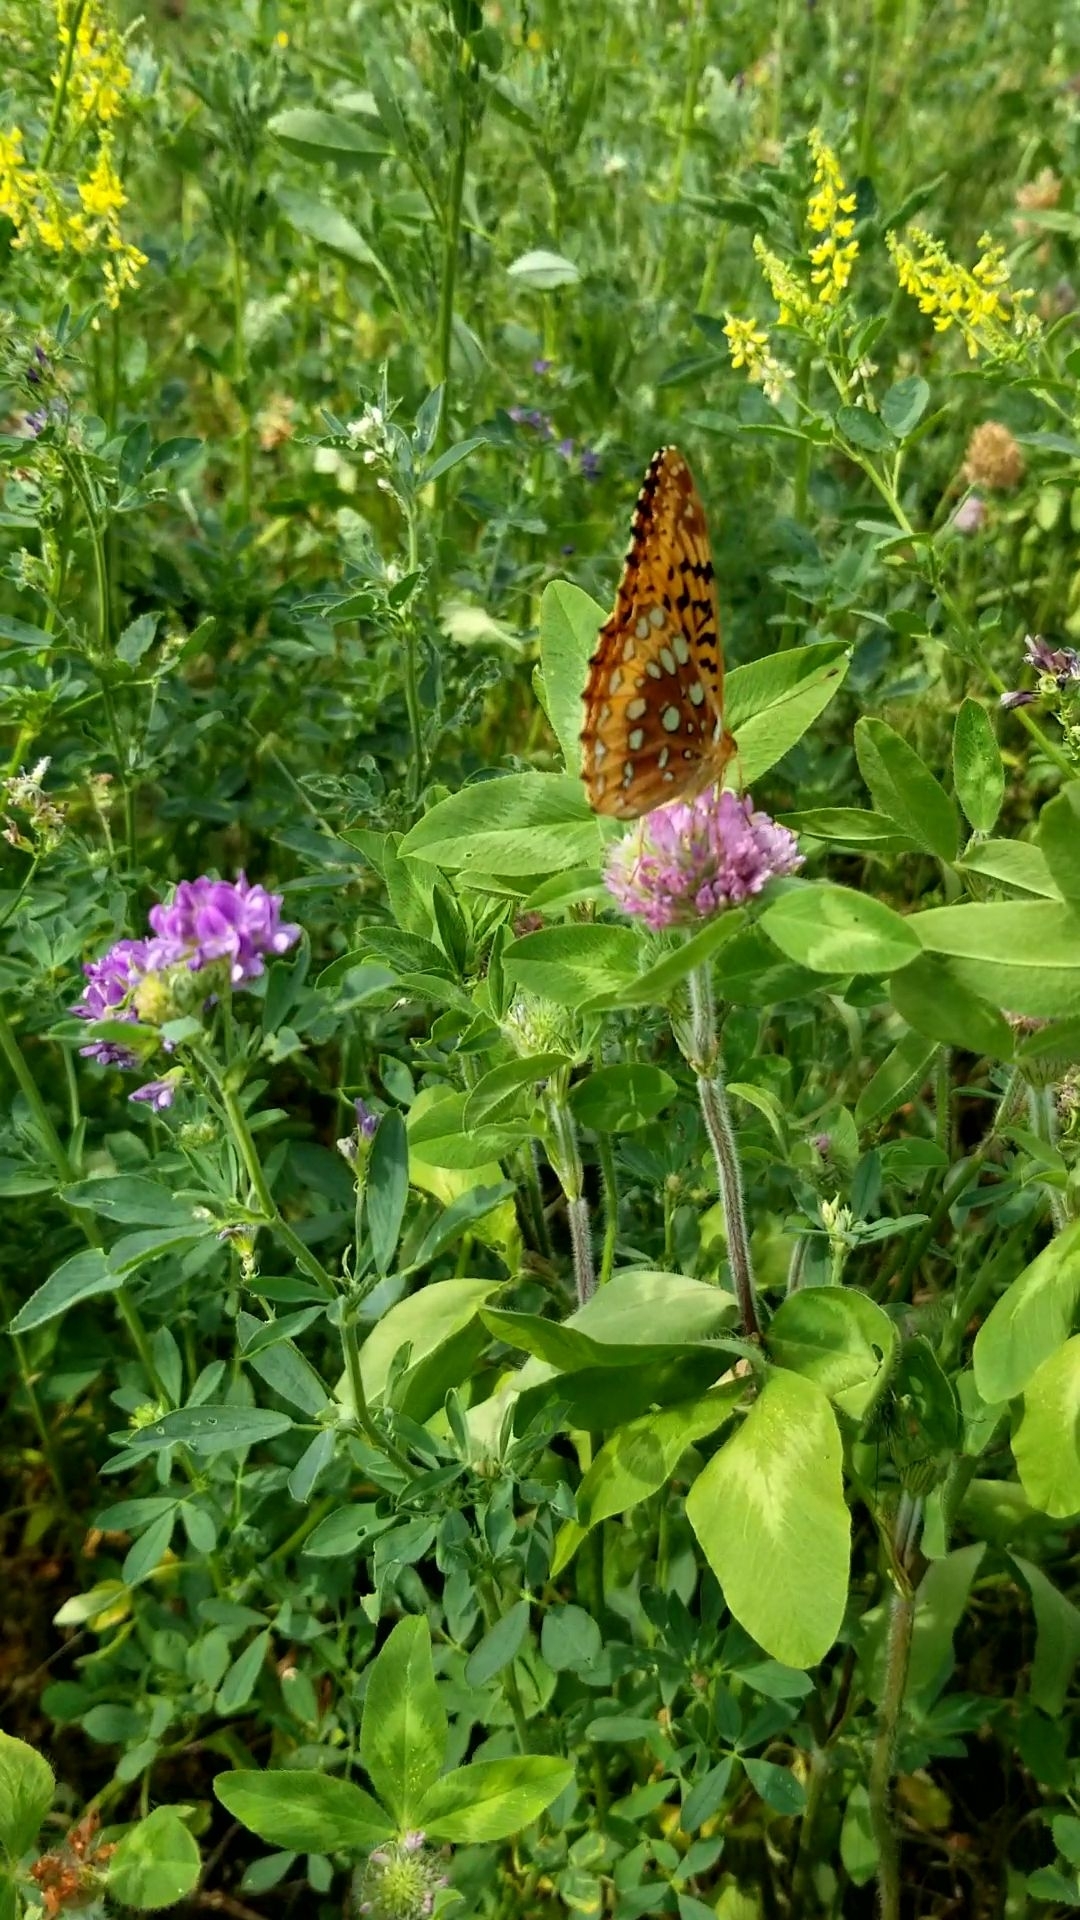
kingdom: Animalia
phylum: Arthropoda
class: Insecta
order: Lepidoptera
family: Nymphalidae
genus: Speyeria
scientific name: Speyeria cybele
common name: Great spangled fritillary
